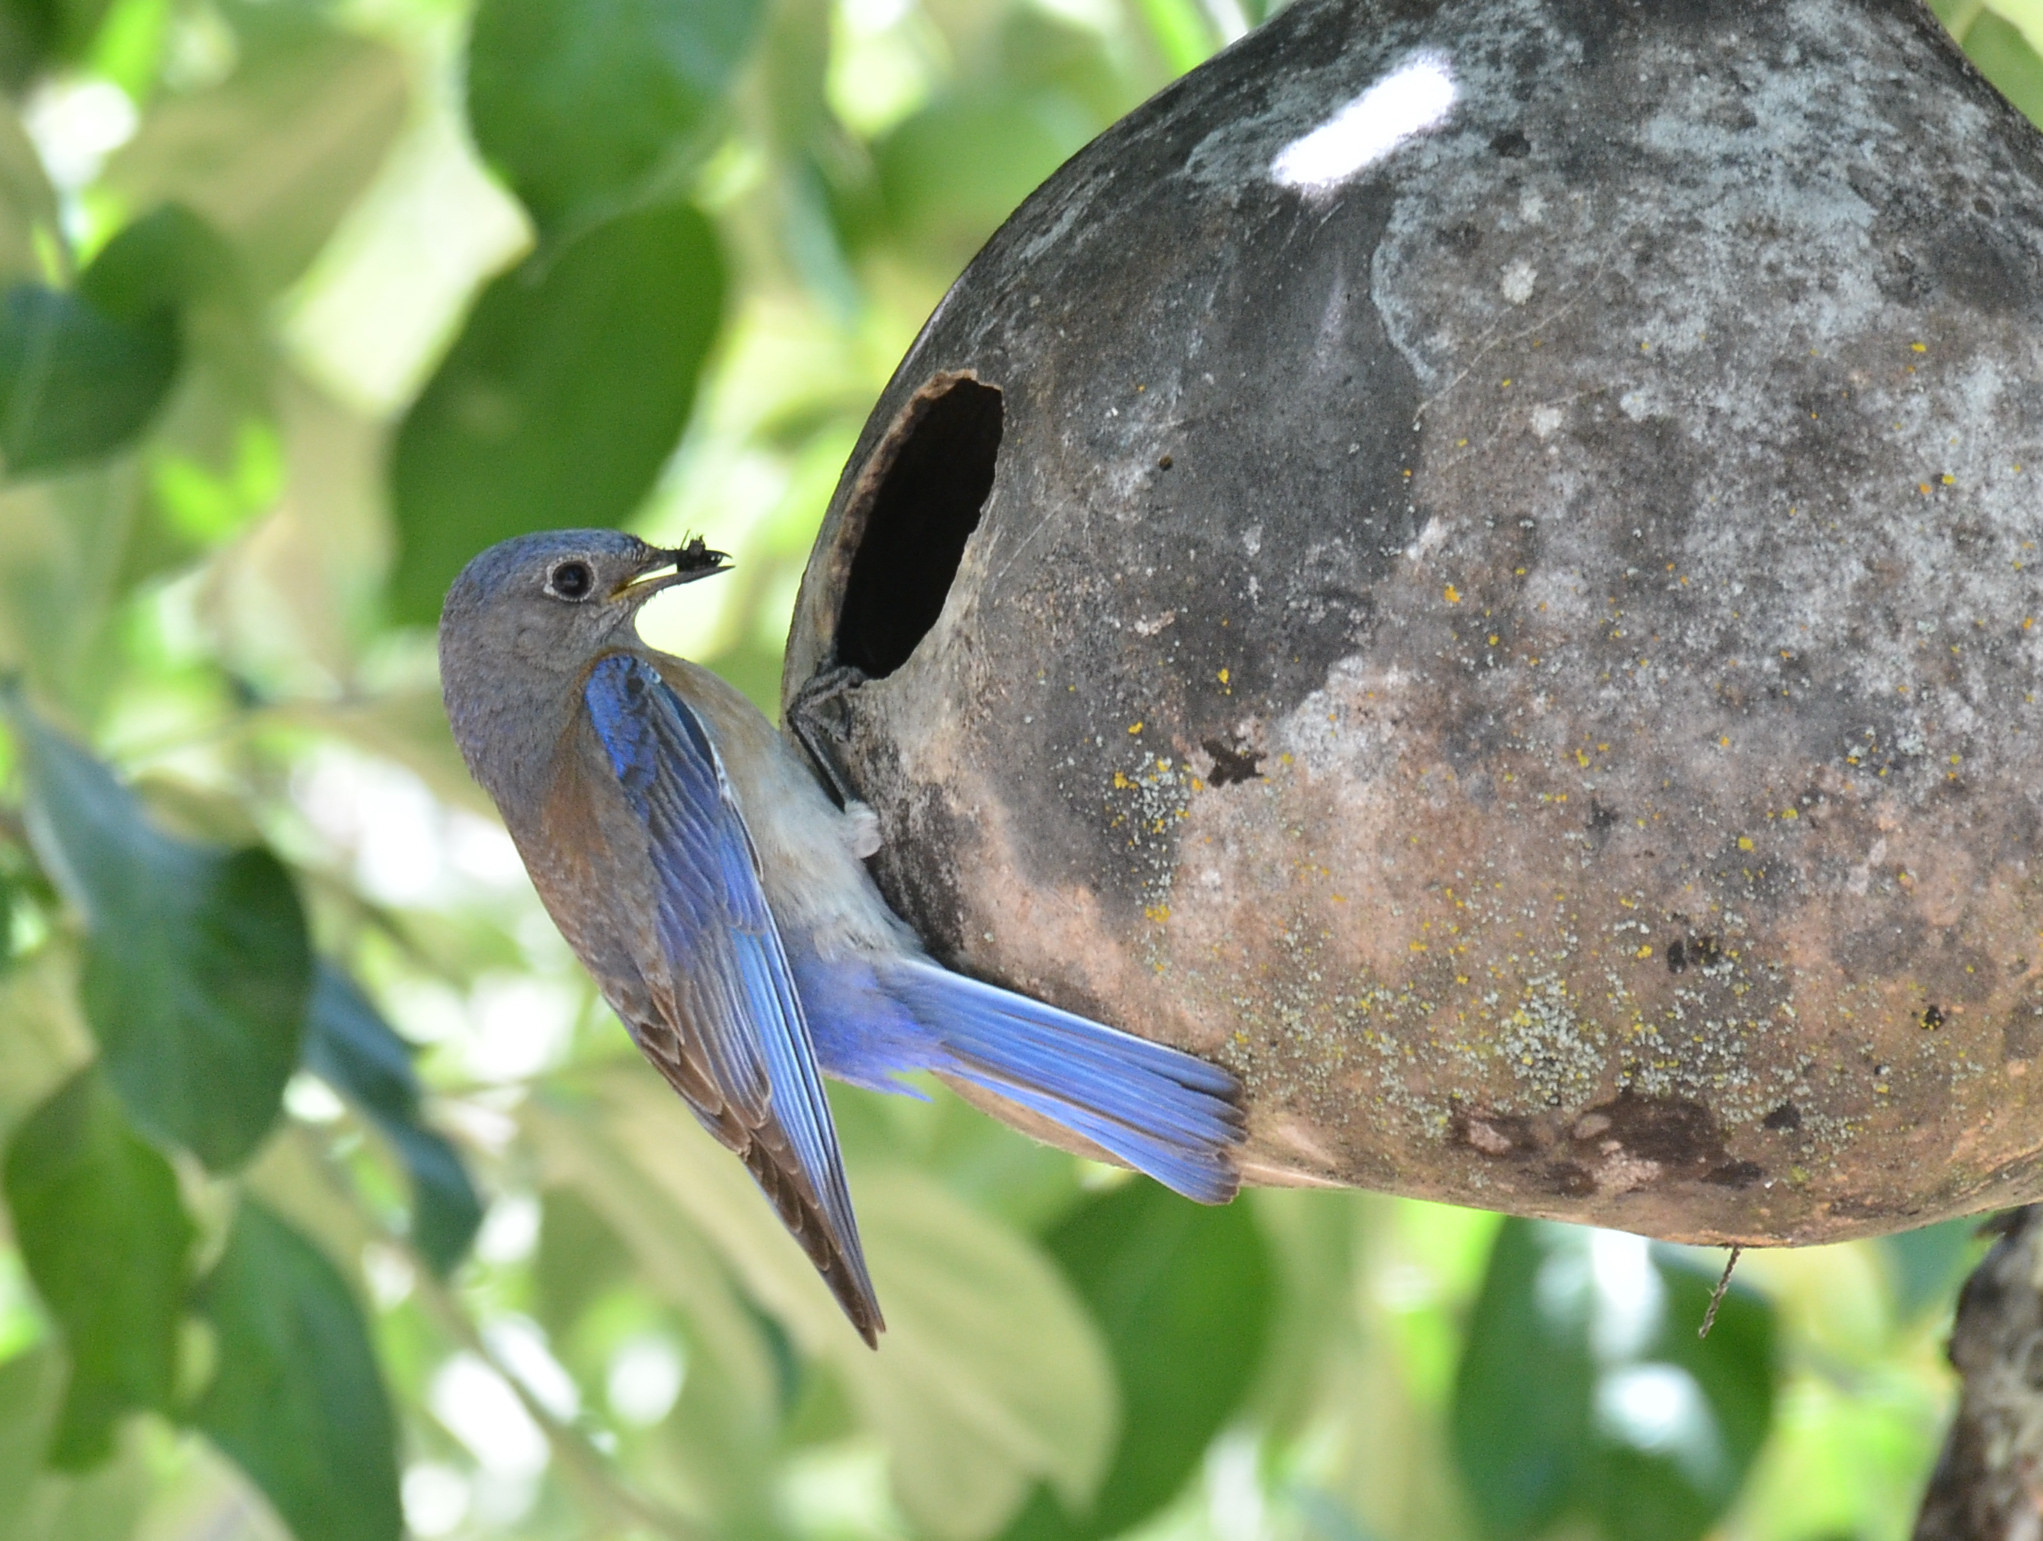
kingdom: Animalia
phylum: Chordata
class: Aves
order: Passeriformes
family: Turdidae
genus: Sialia
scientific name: Sialia mexicana
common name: Western bluebird
